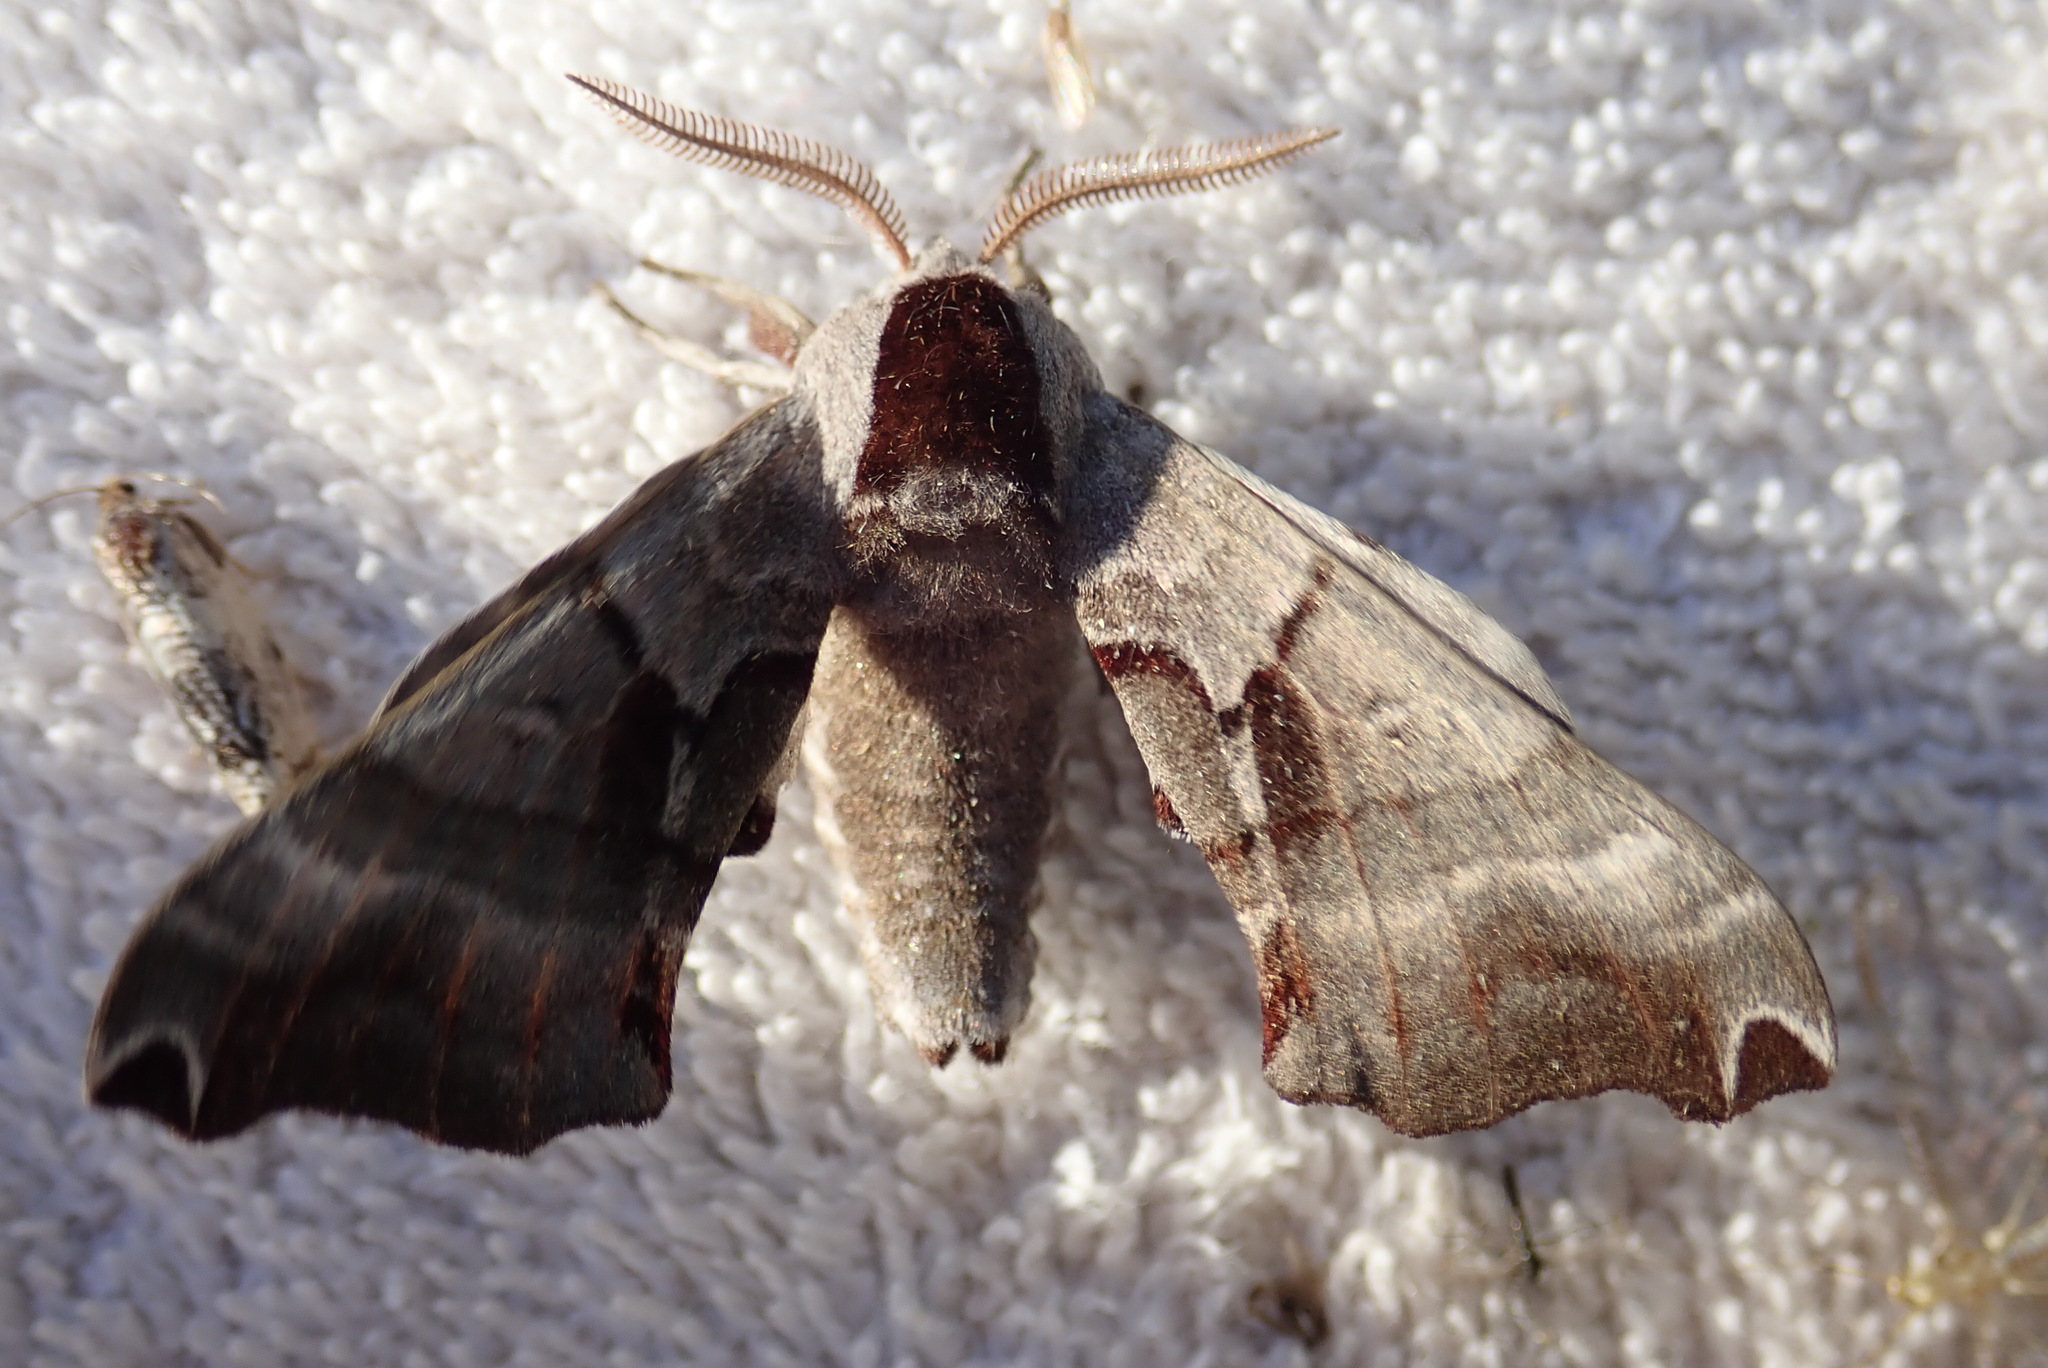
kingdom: Animalia
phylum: Arthropoda
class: Insecta
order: Lepidoptera
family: Sphingidae
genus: Smerinthus
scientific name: Smerinthus jamaicensis
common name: Twin spotted sphinx
